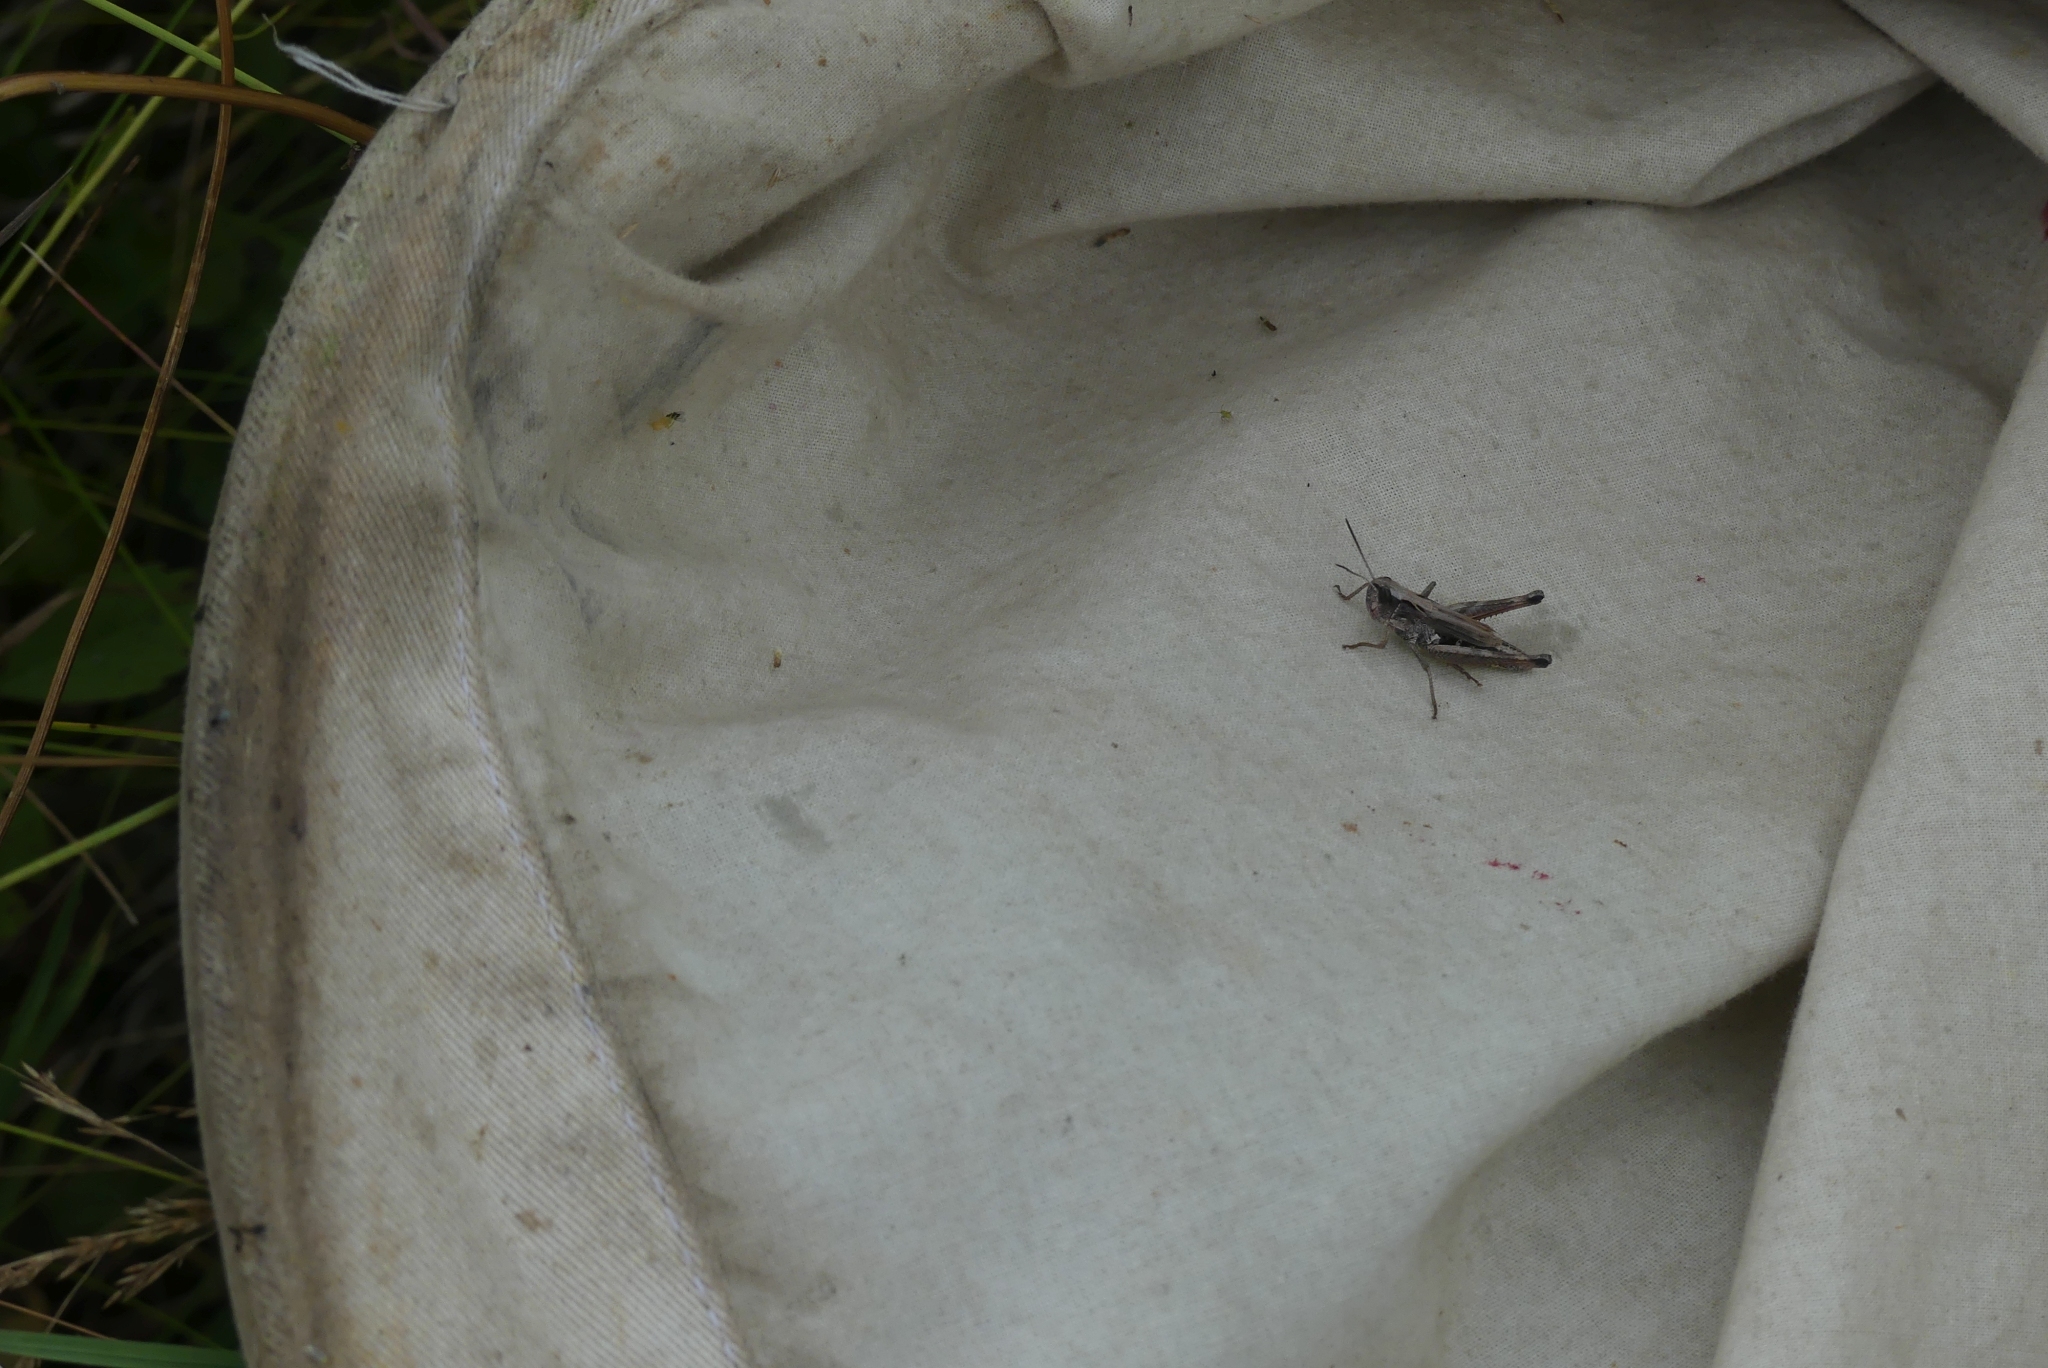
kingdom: Animalia
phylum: Arthropoda
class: Insecta
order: Orthoptera
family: Acrididae
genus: Pseudochorthippus
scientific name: Pseudochorthippus curtipennis
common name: Marsh meadow grasshopper
